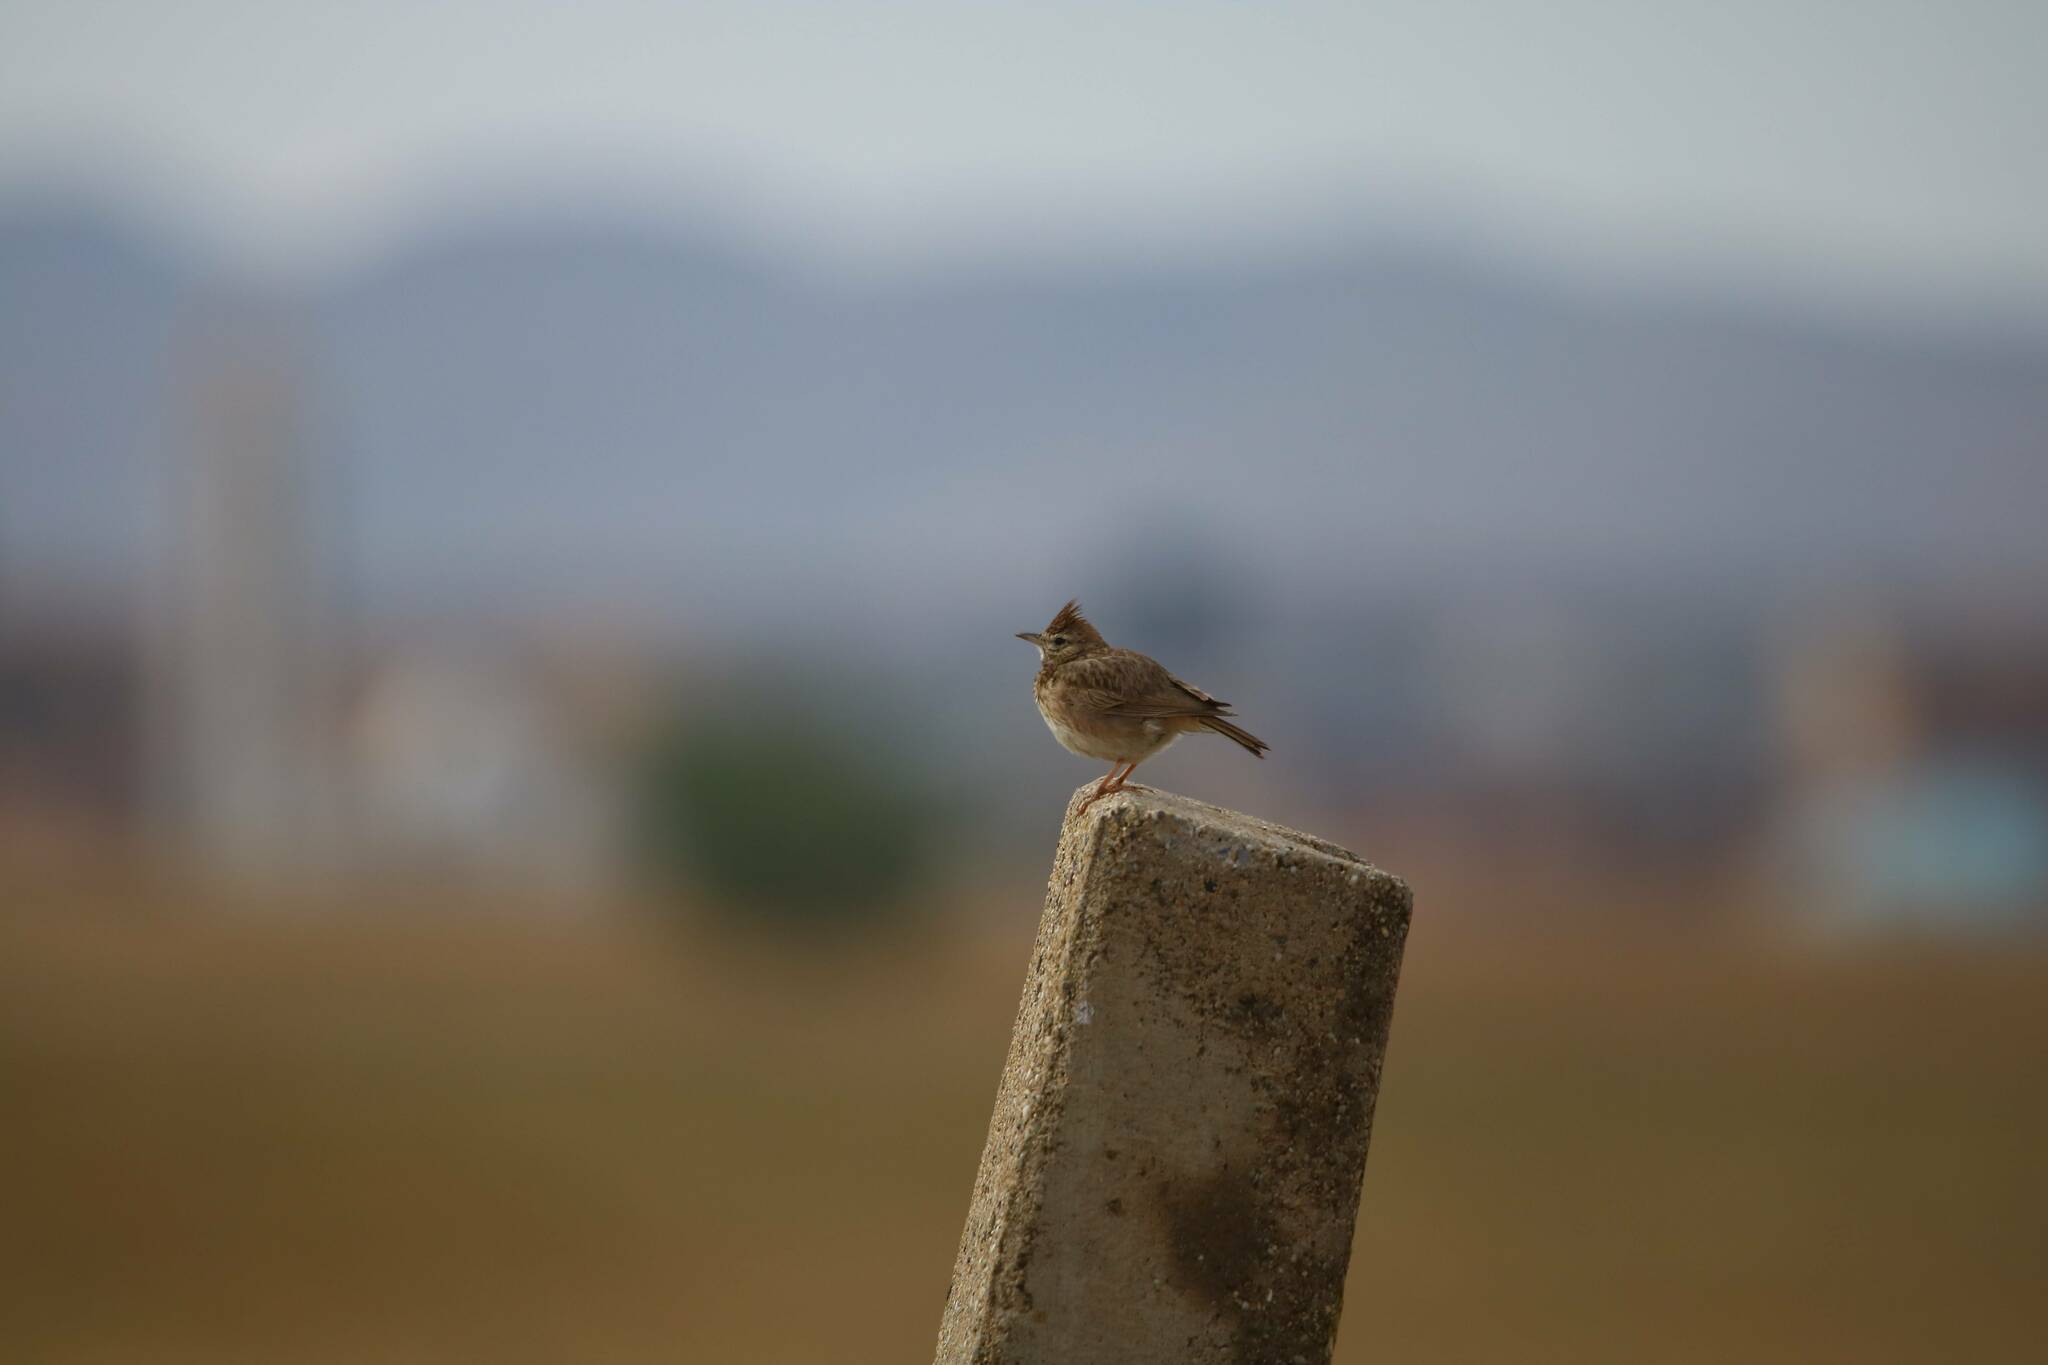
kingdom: Animalia
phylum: Chordata
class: Aves
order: Passeriformes
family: Alaudidae
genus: Galerida
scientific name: Galerida theklae
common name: Thekla lark
